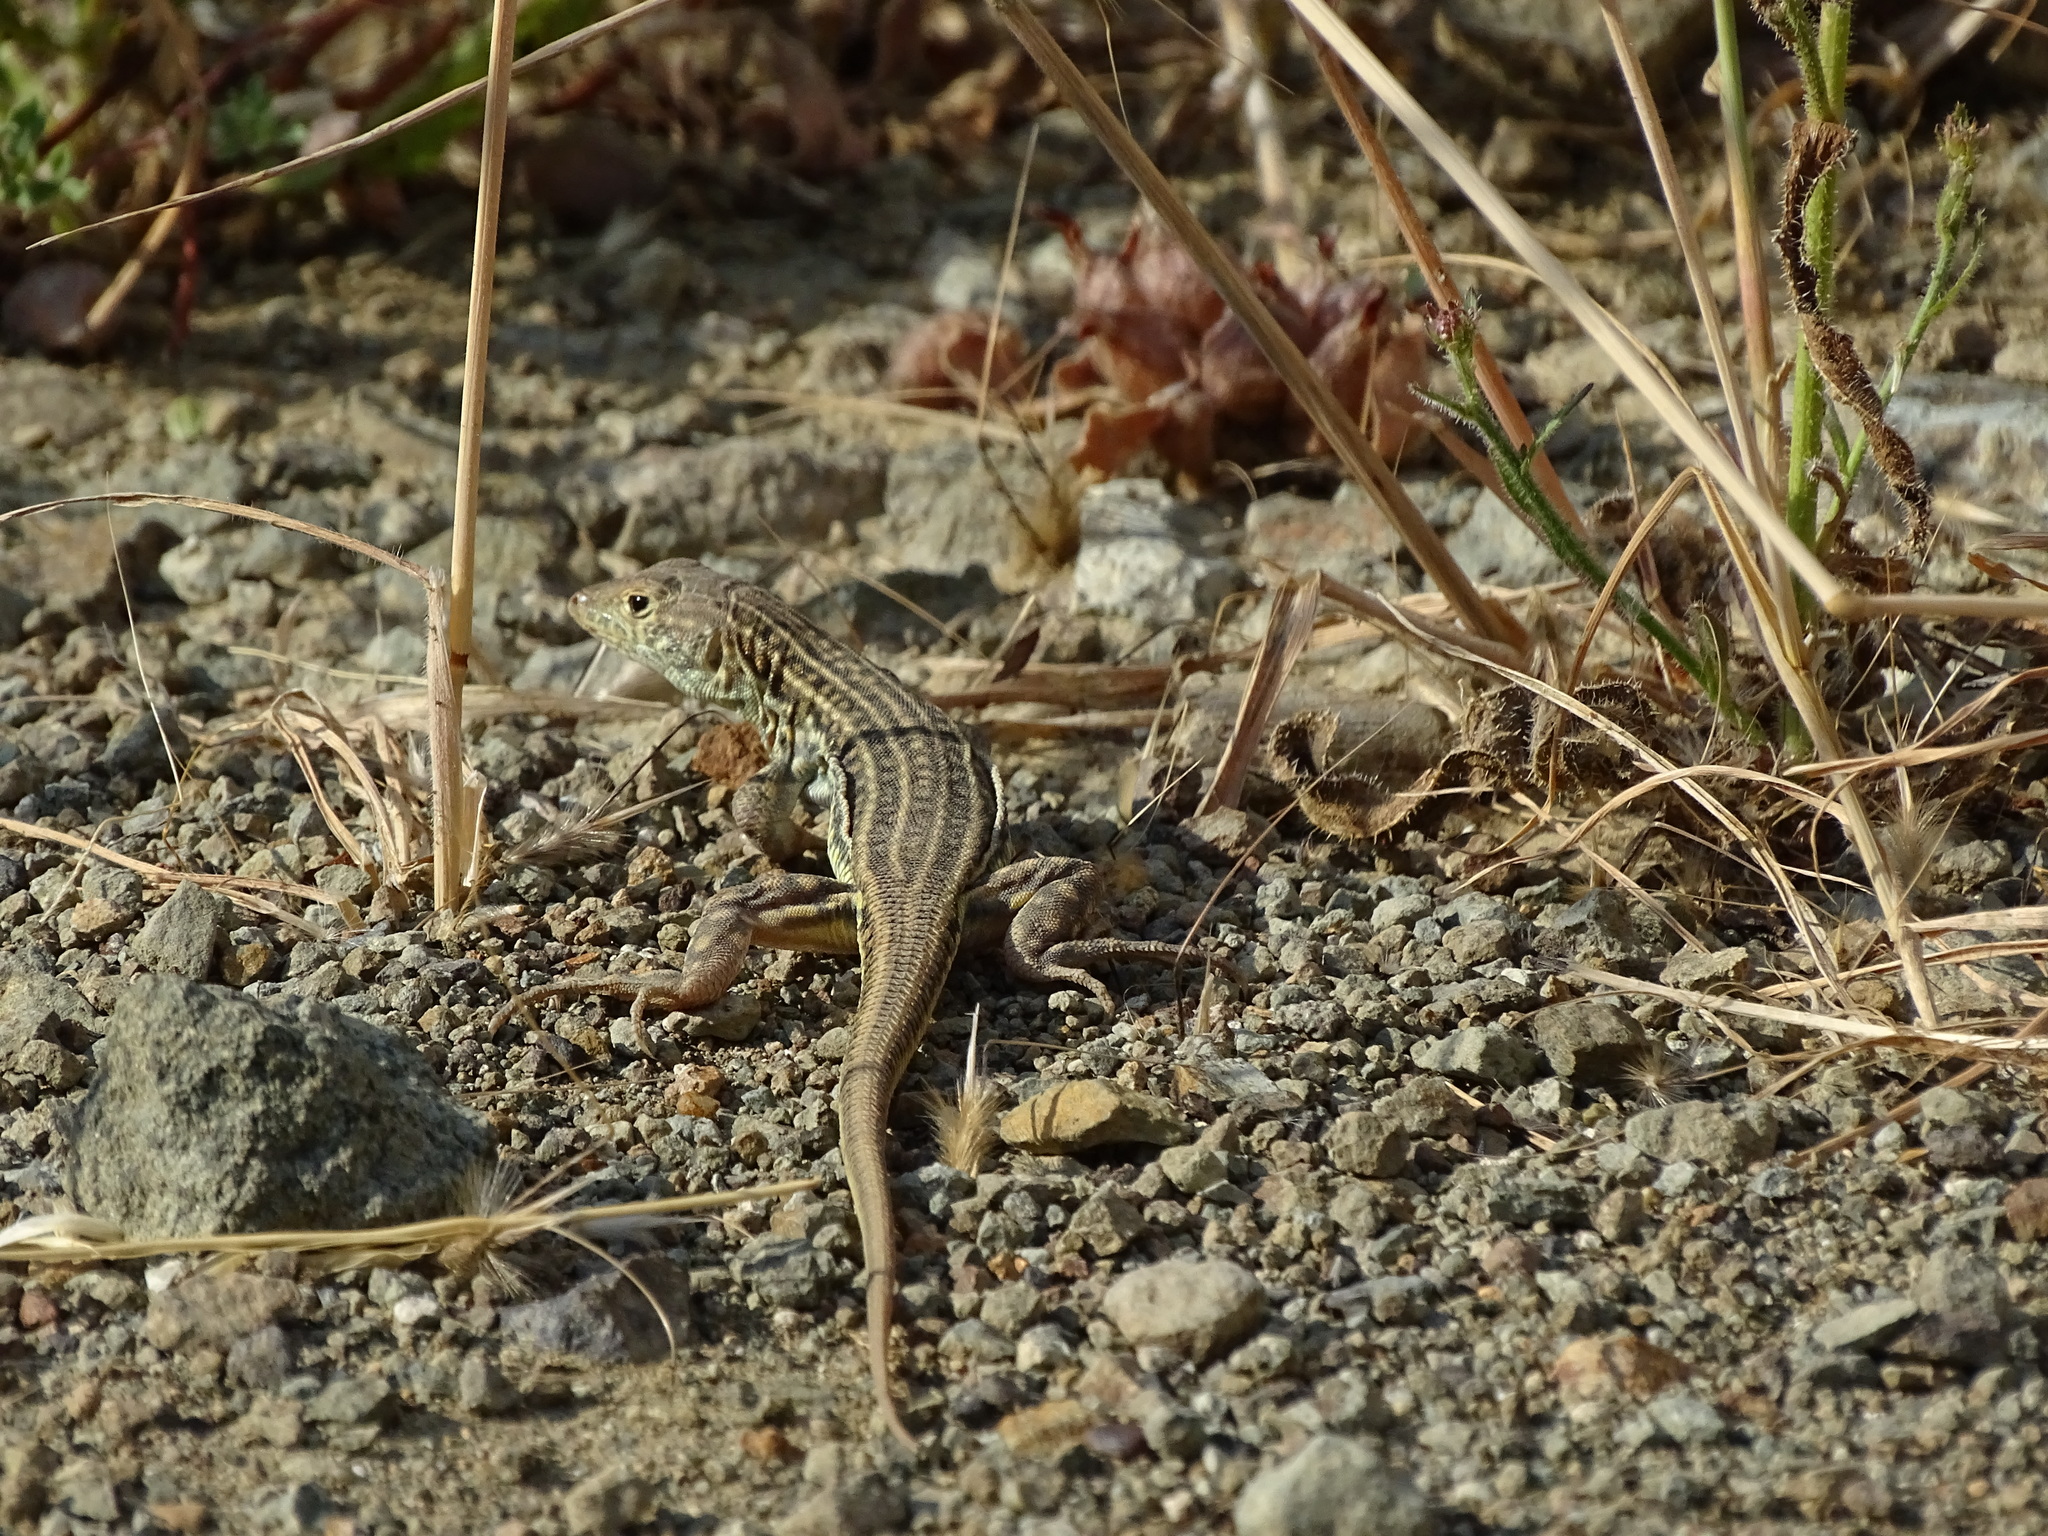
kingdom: Animalia
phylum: Chordata
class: Squamata
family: Lacertidae
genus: Acanthodactylus
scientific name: Acanthodactylus schreiberi
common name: Schreiber's fringe-fingered lizard
